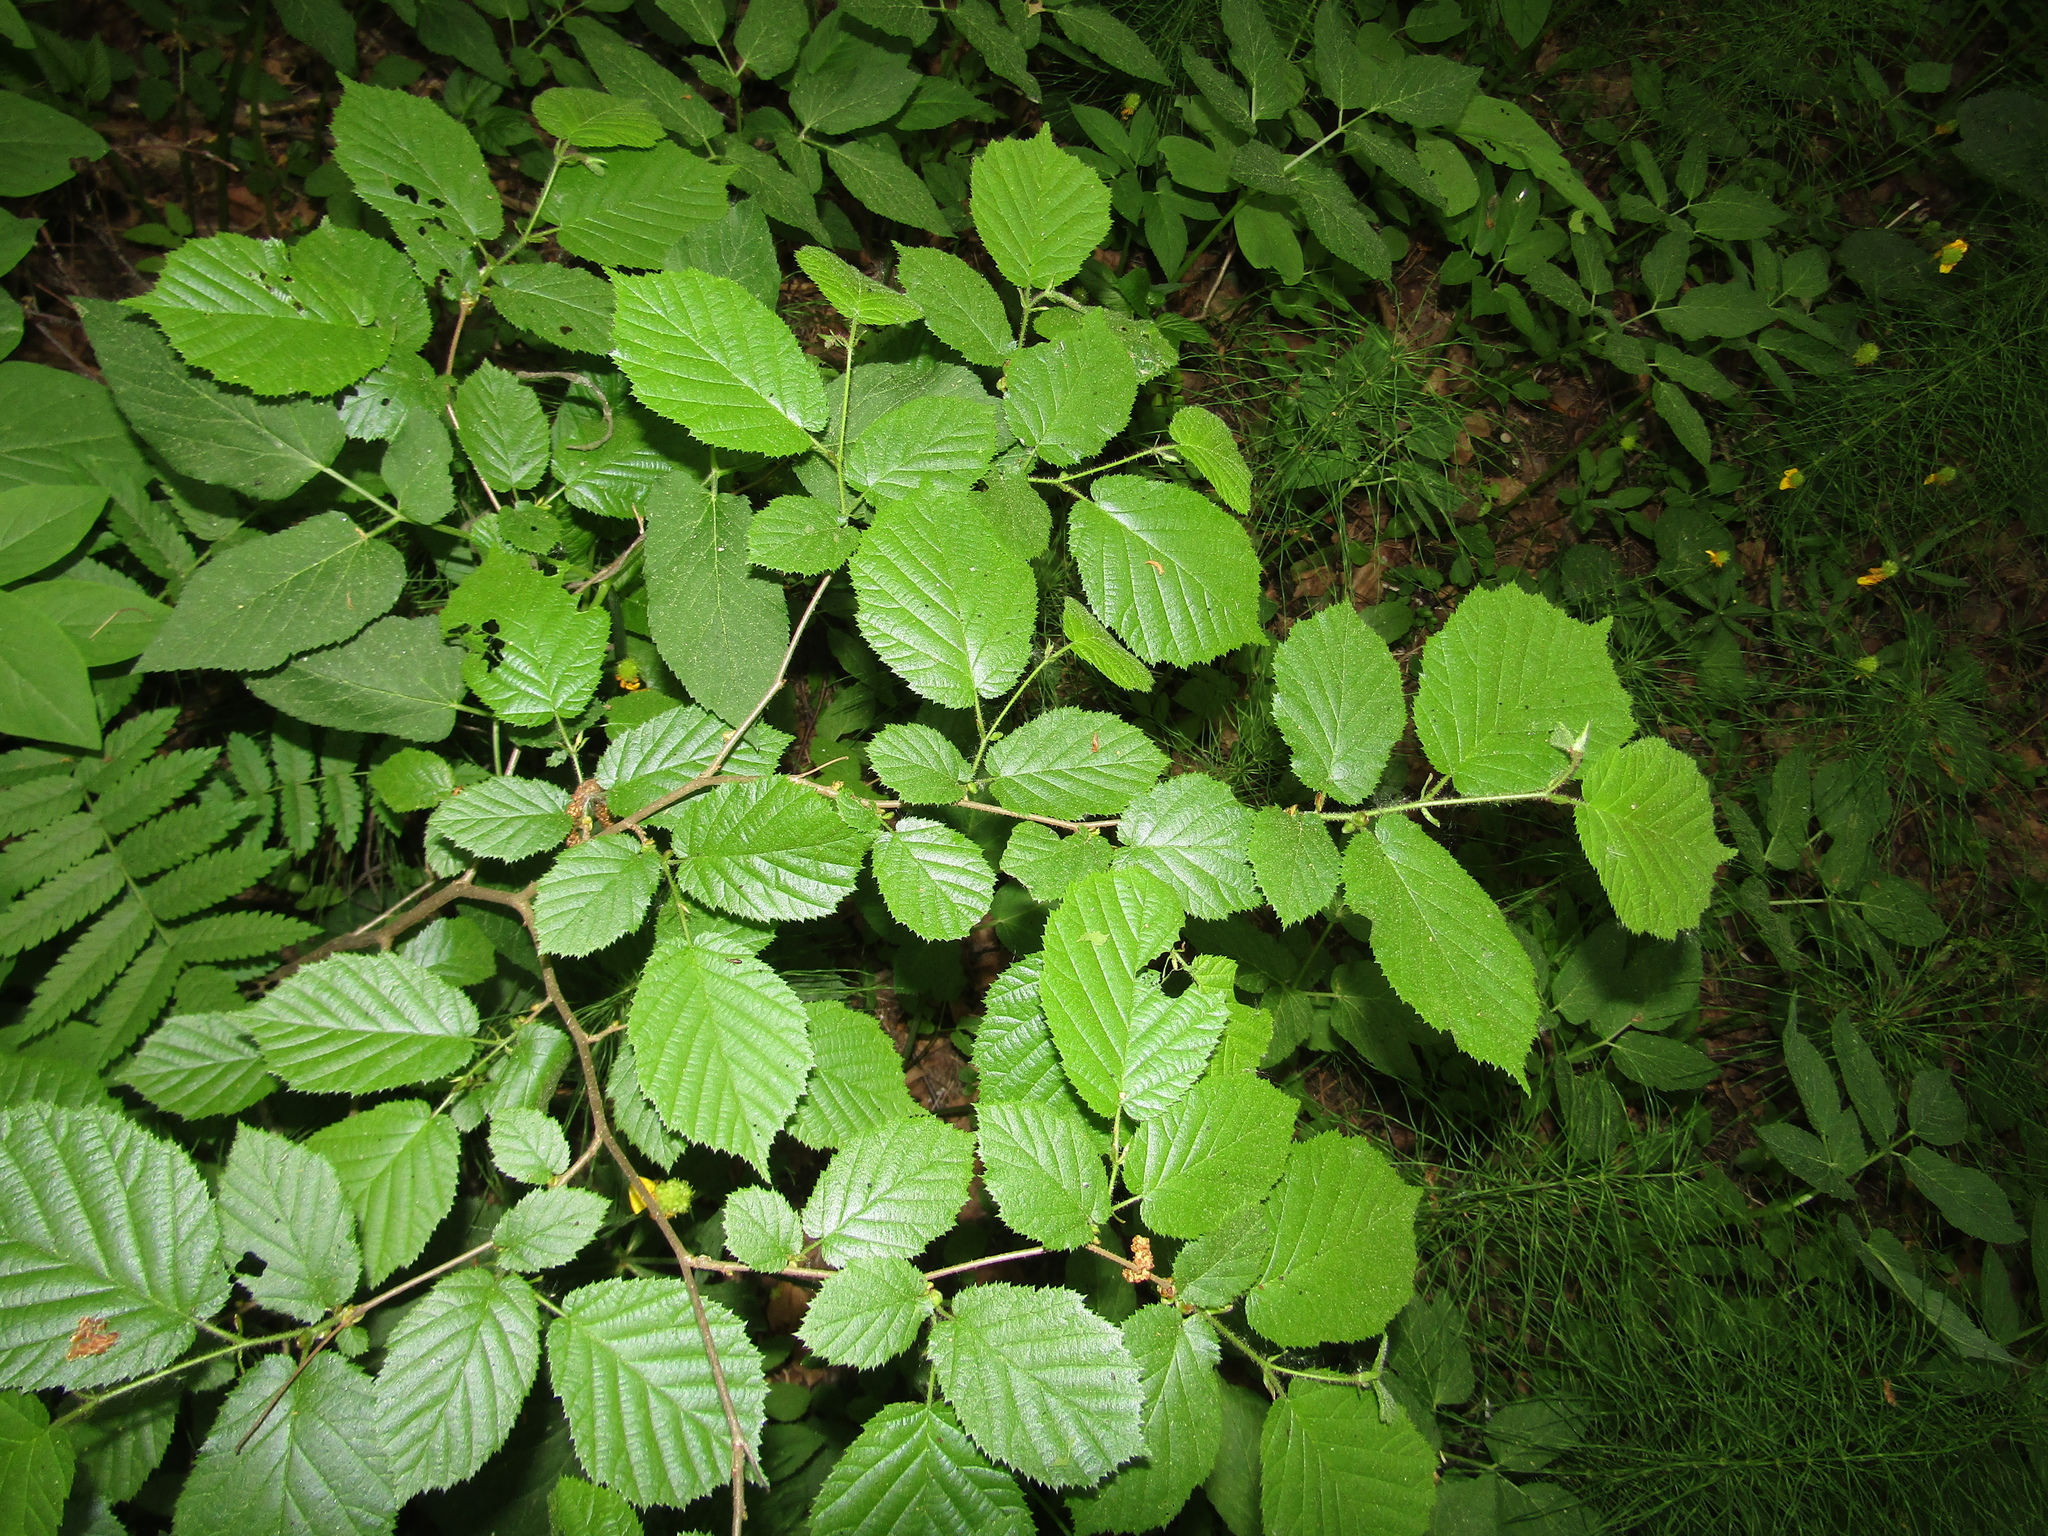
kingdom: Plantae
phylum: Tracheophyta
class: Magnoliopsida
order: Fagales
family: Betulaceae
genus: Corylus
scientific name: Corylus avellana
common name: European hazel
